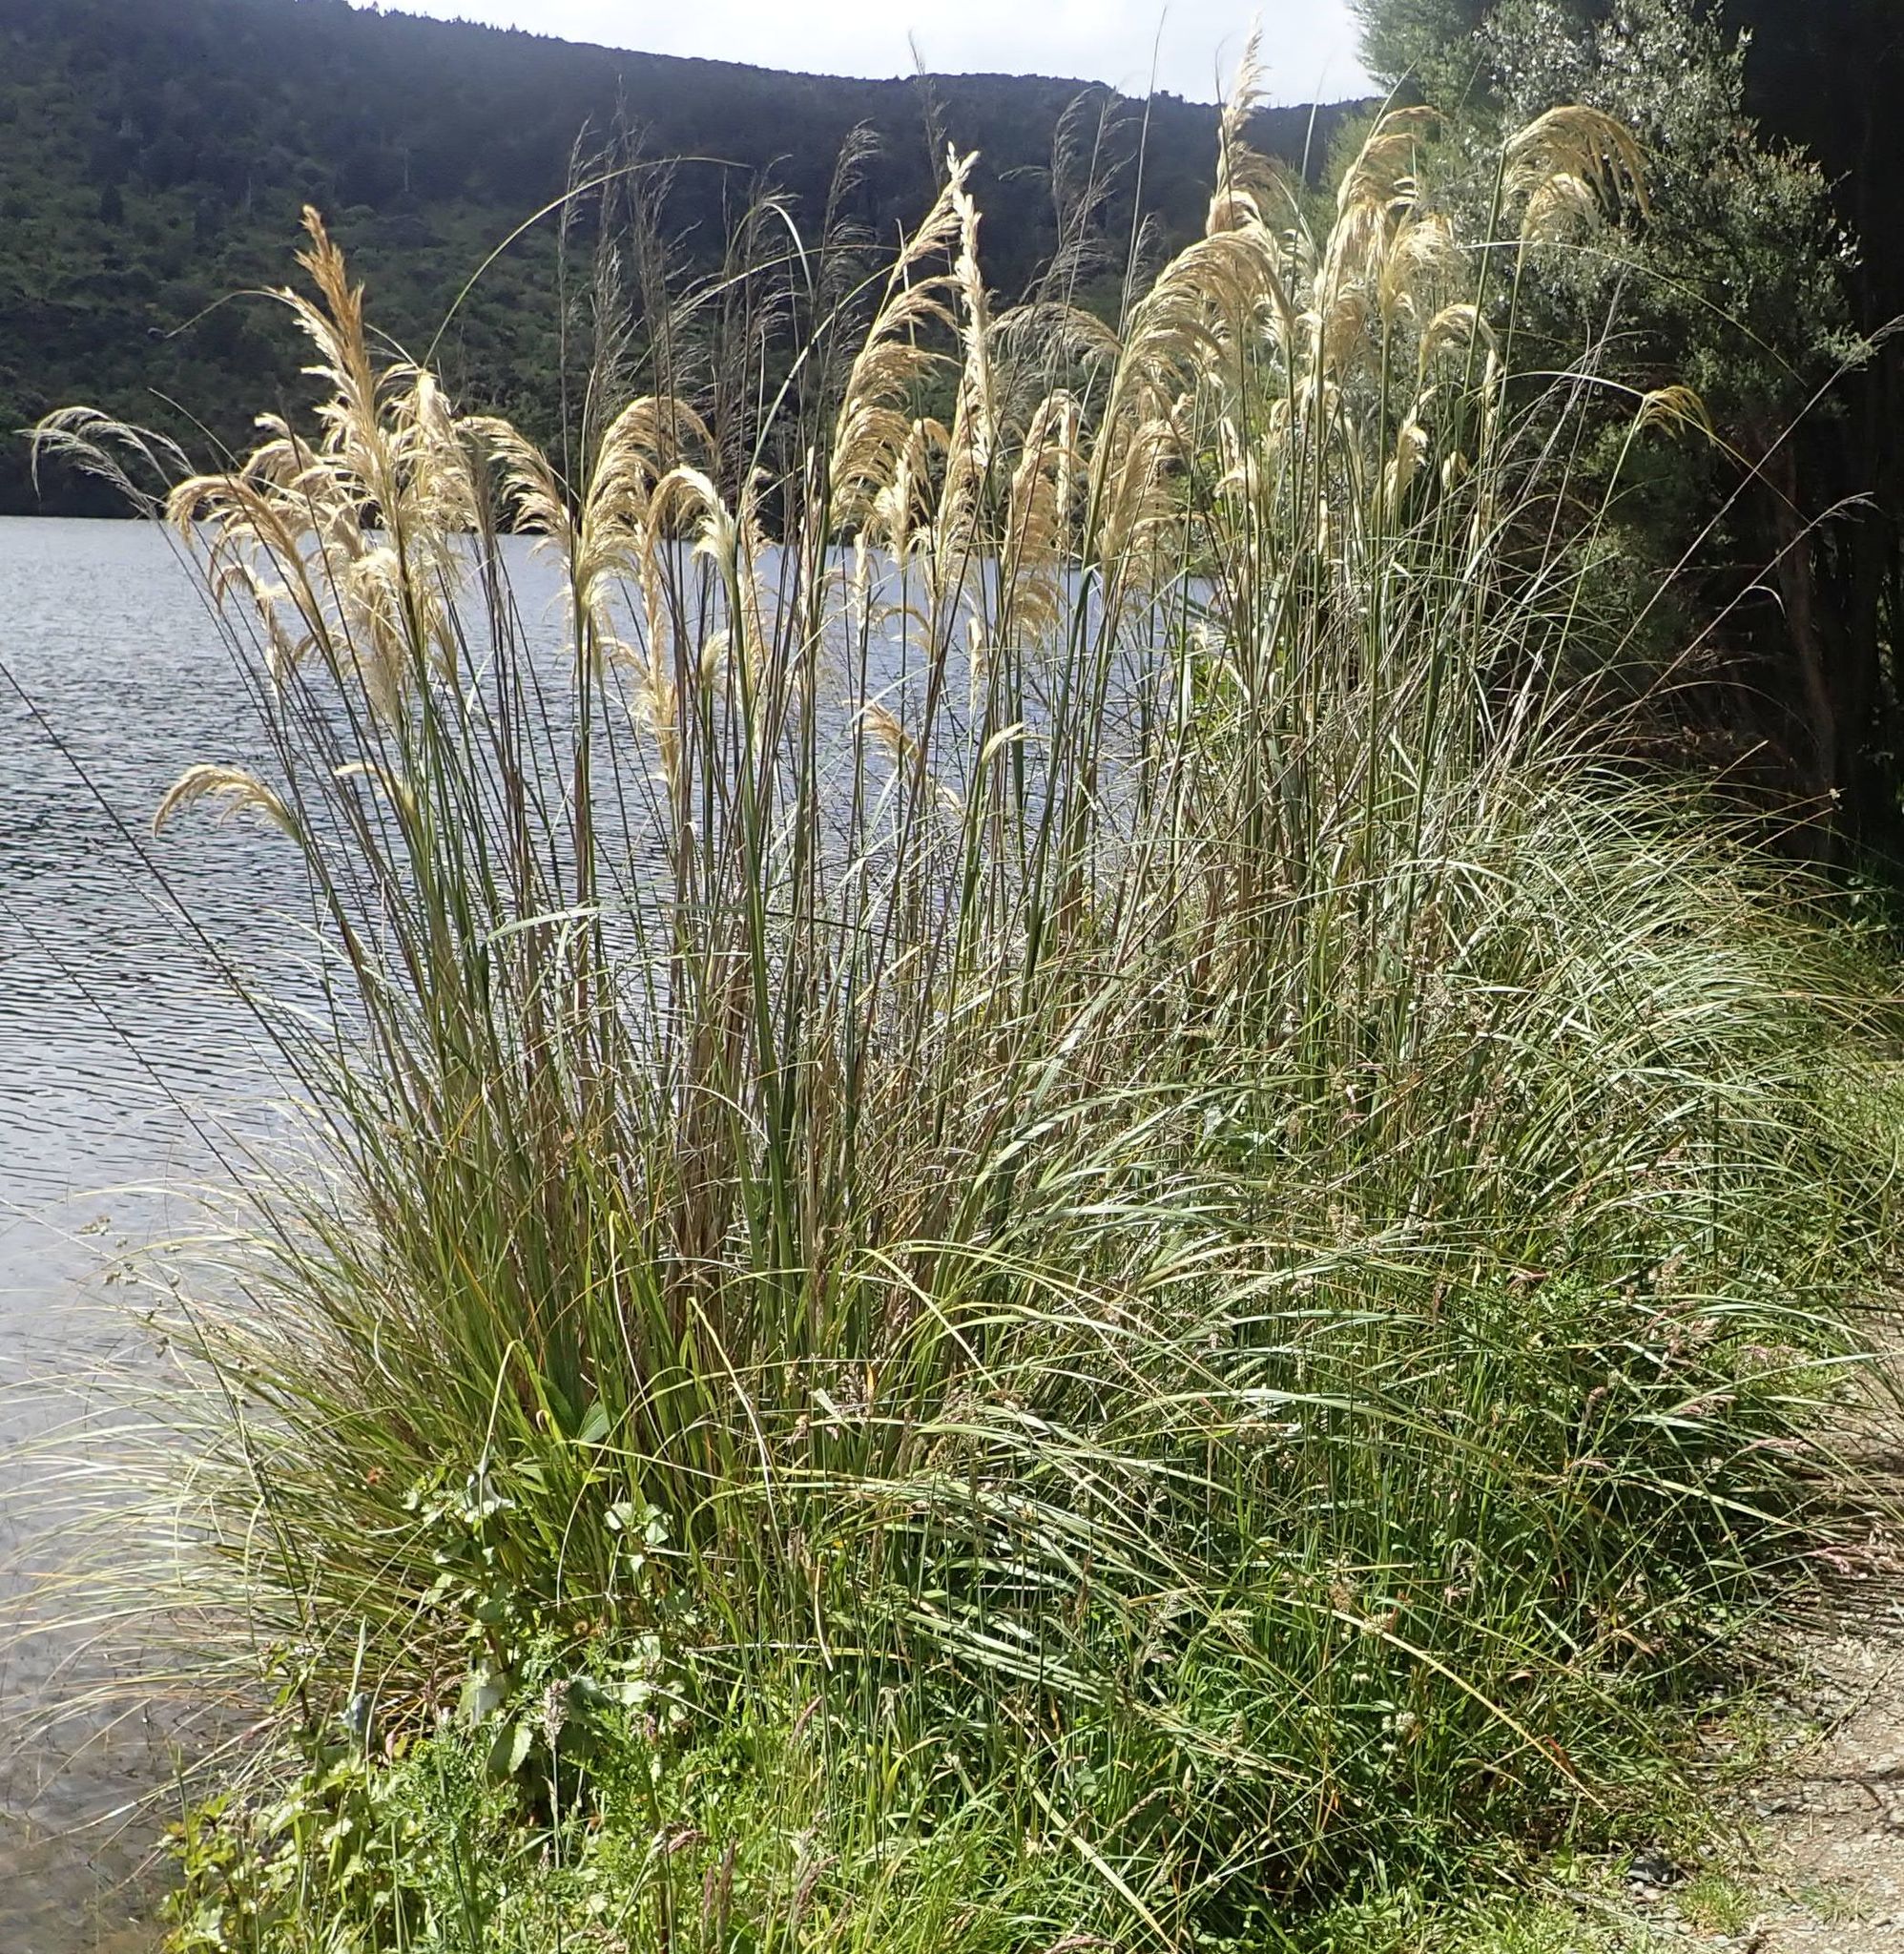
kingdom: Plantae
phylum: Tracheophyta
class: Liliopsida
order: Poales
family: Poaceae
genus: Austroderia
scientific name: Austroderia richardii
